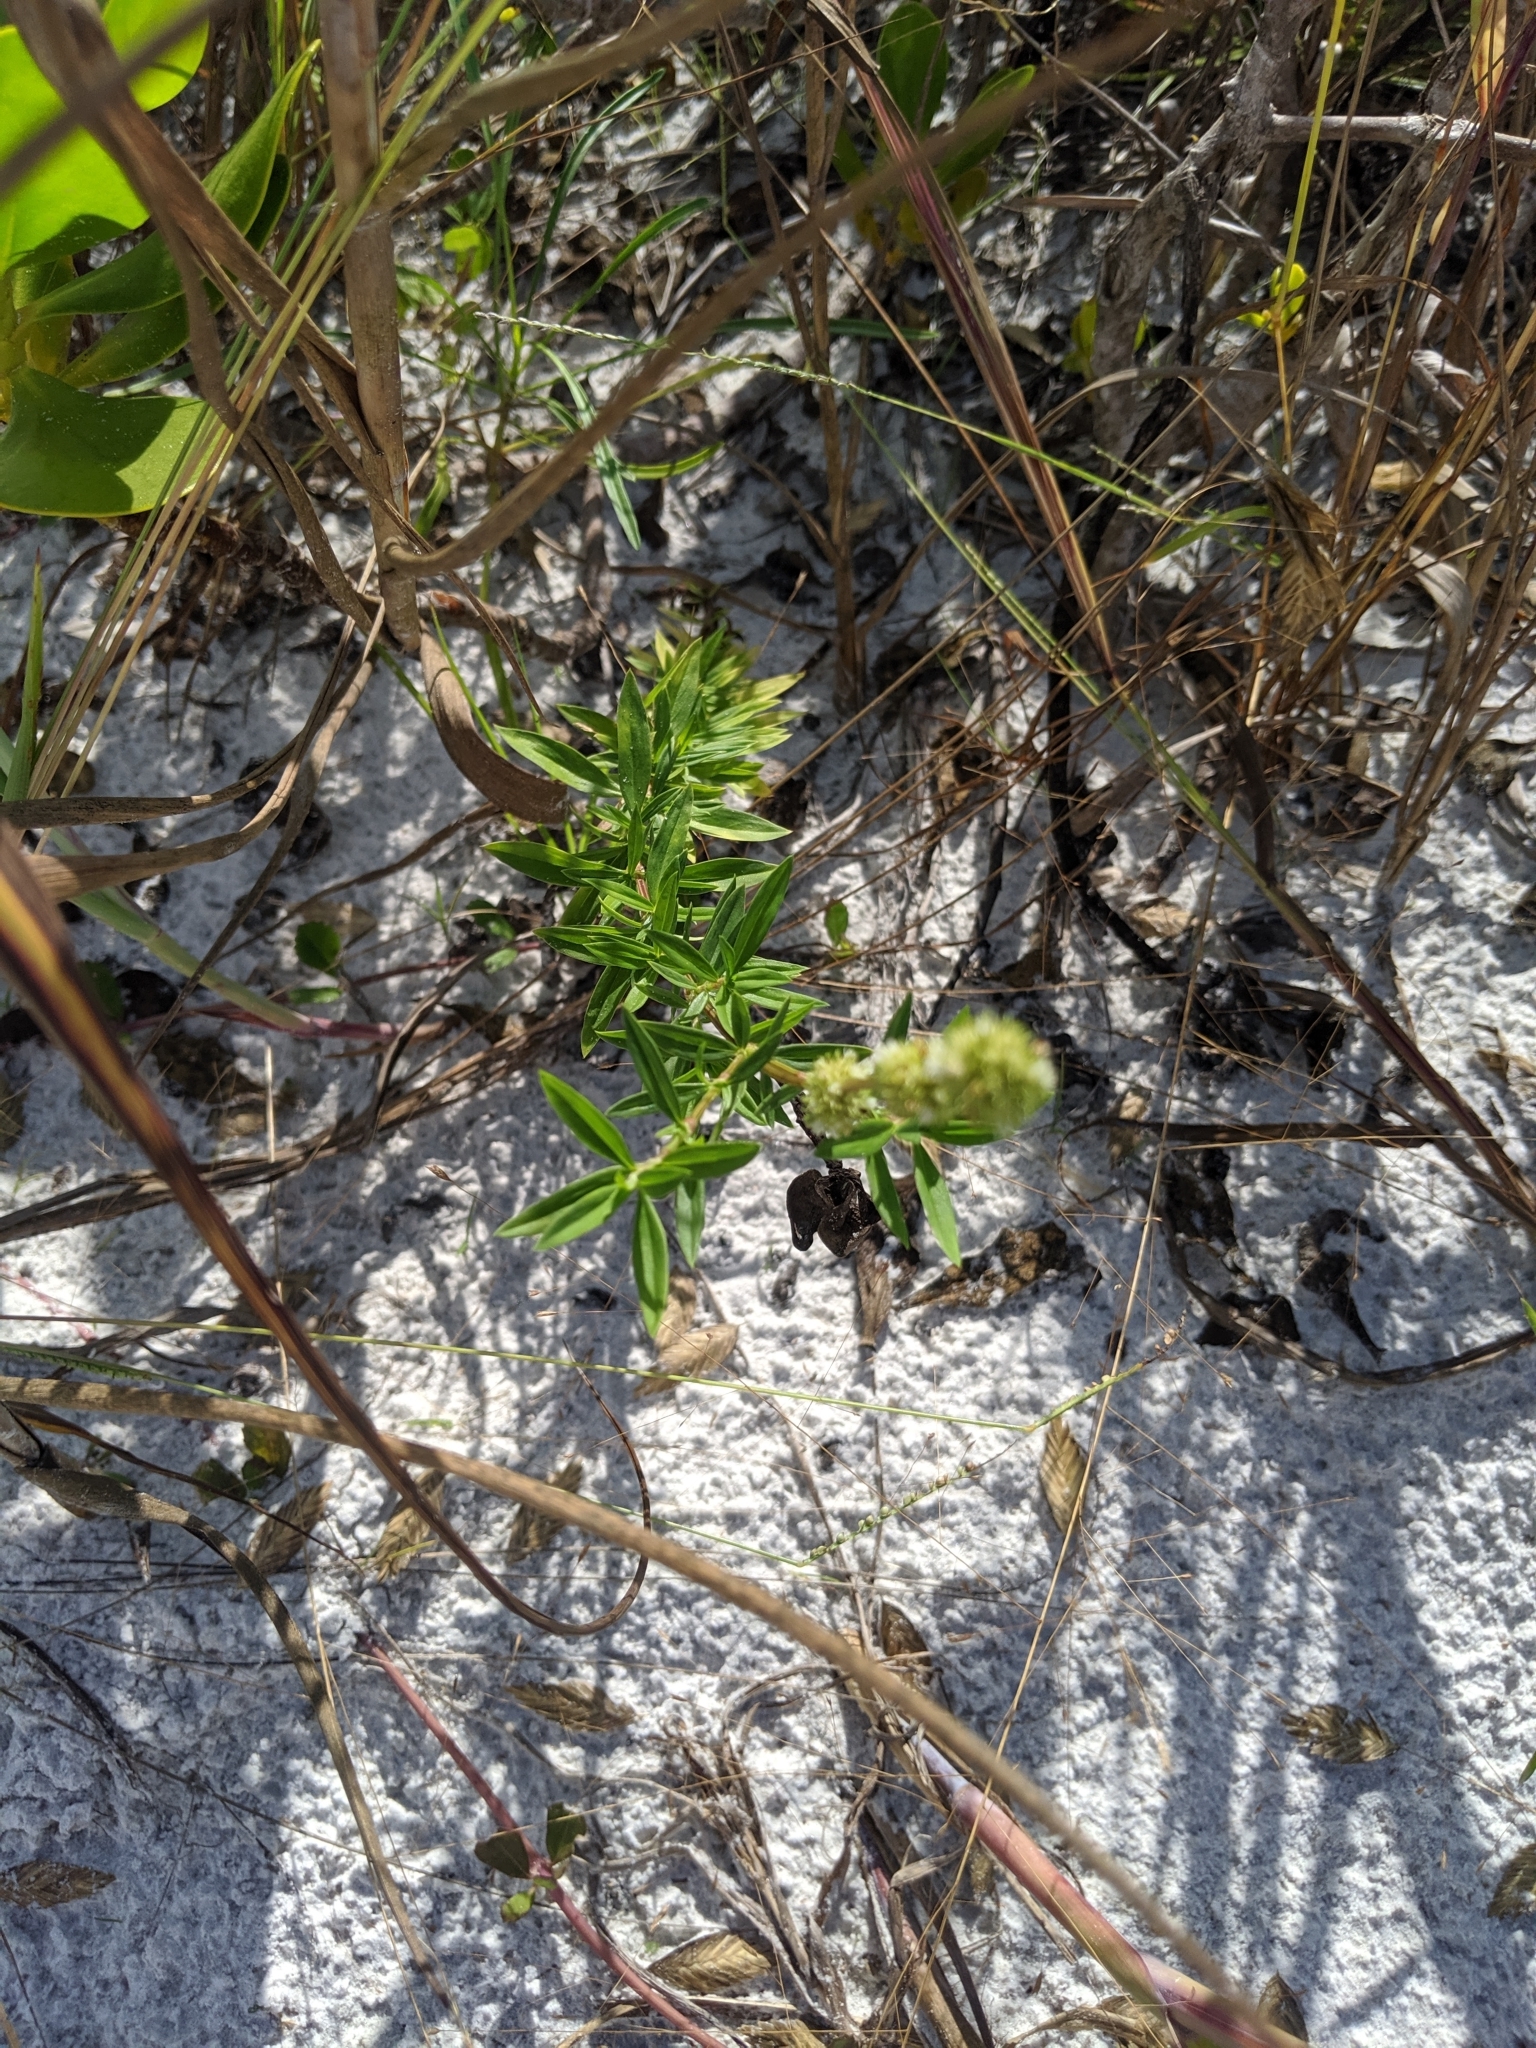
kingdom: Plantae
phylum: Tracheophyta
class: Magnoliopsida
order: Gentianales
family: Rubiaceae
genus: Spermacoce
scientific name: Spermacoce verticillata
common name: Shrubby false buttonweed
